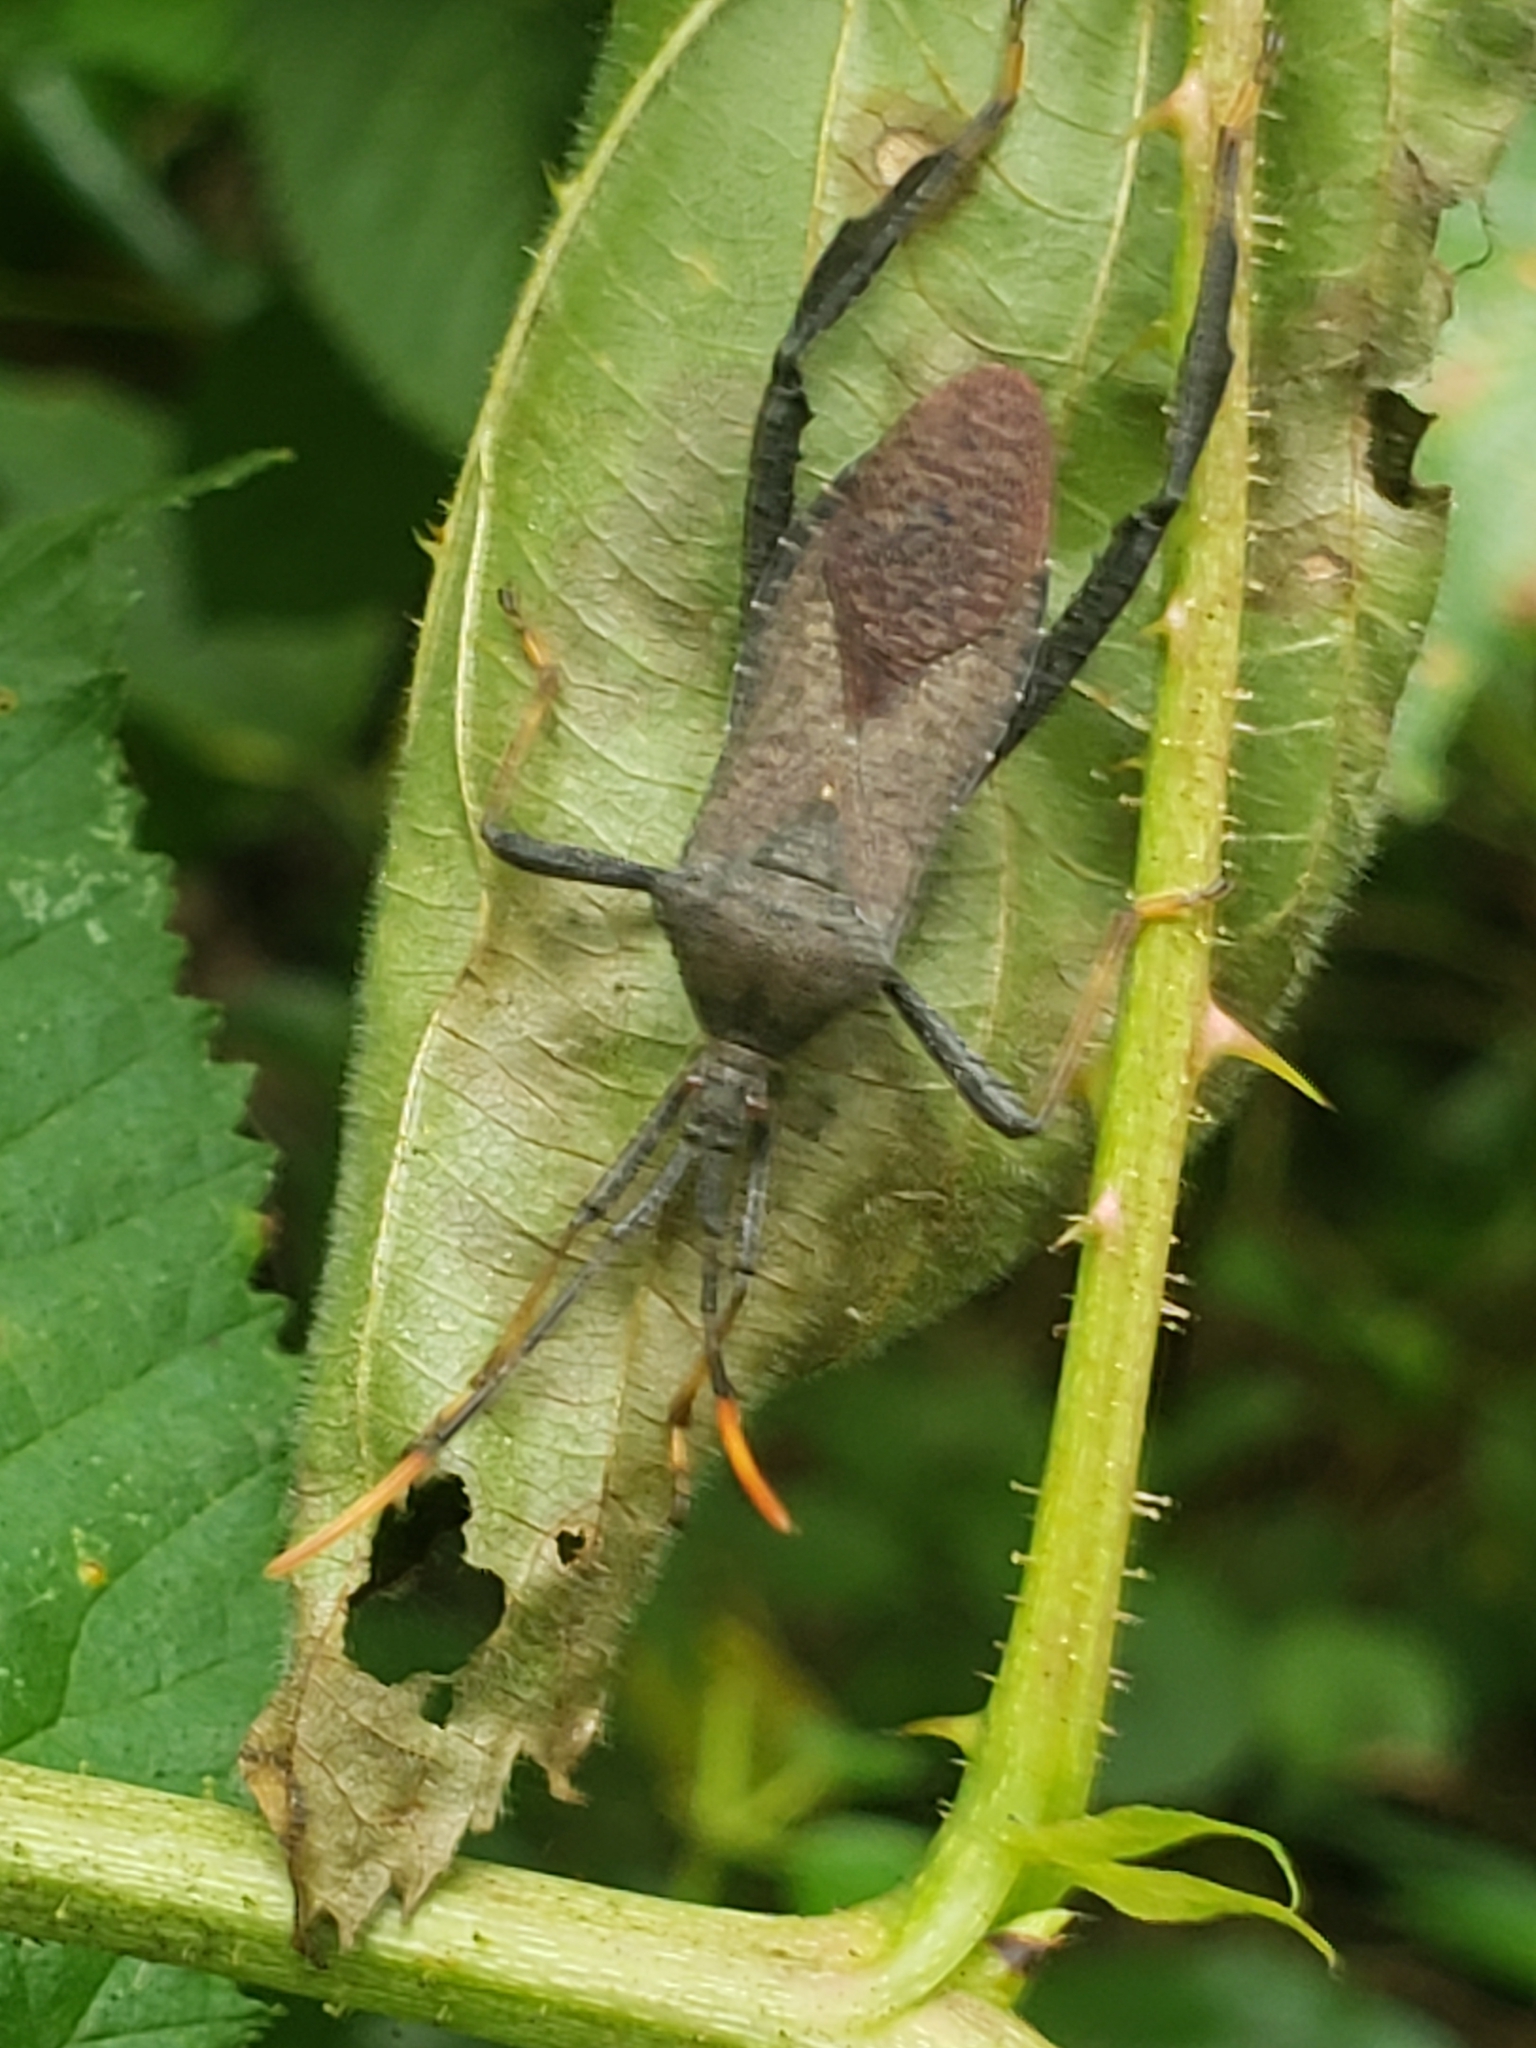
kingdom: Animalia
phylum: Arthropoda
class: Insecta
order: Hemiptera
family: Coreidae
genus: Acanthocephala
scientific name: Acanthocephala terminalis
